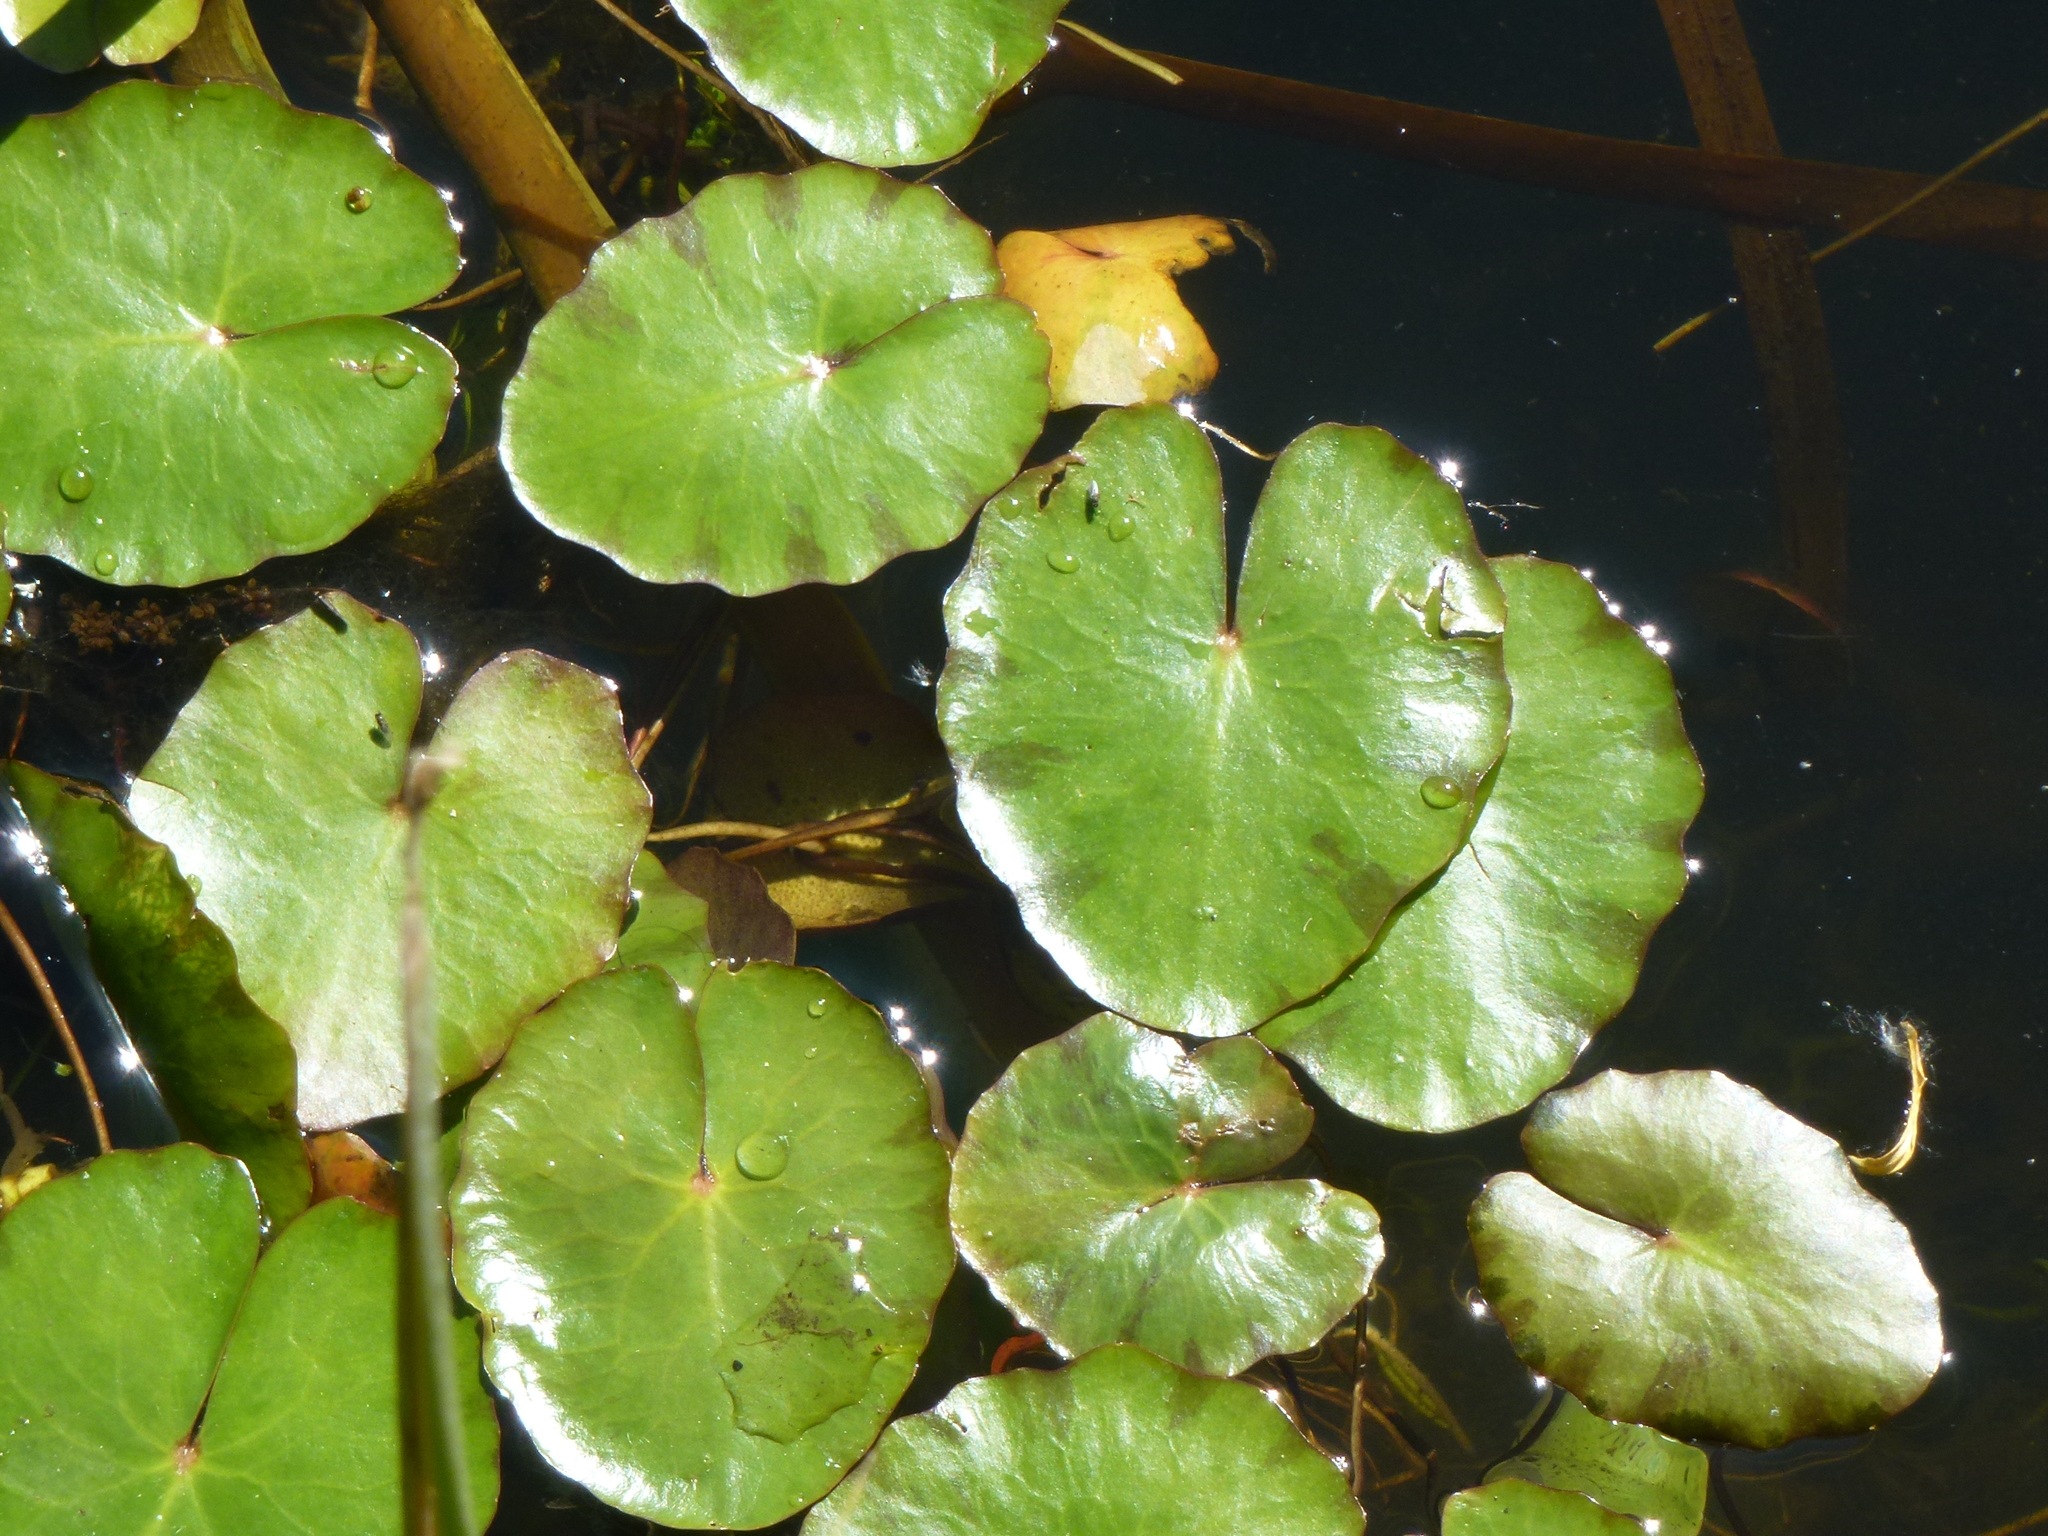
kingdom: Plantae
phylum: Tracheophyta
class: Magnoliopsida
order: Asterales
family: Menyanthaceae
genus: Nymphoides
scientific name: Nymphoides peltata
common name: Fringed water-lily
